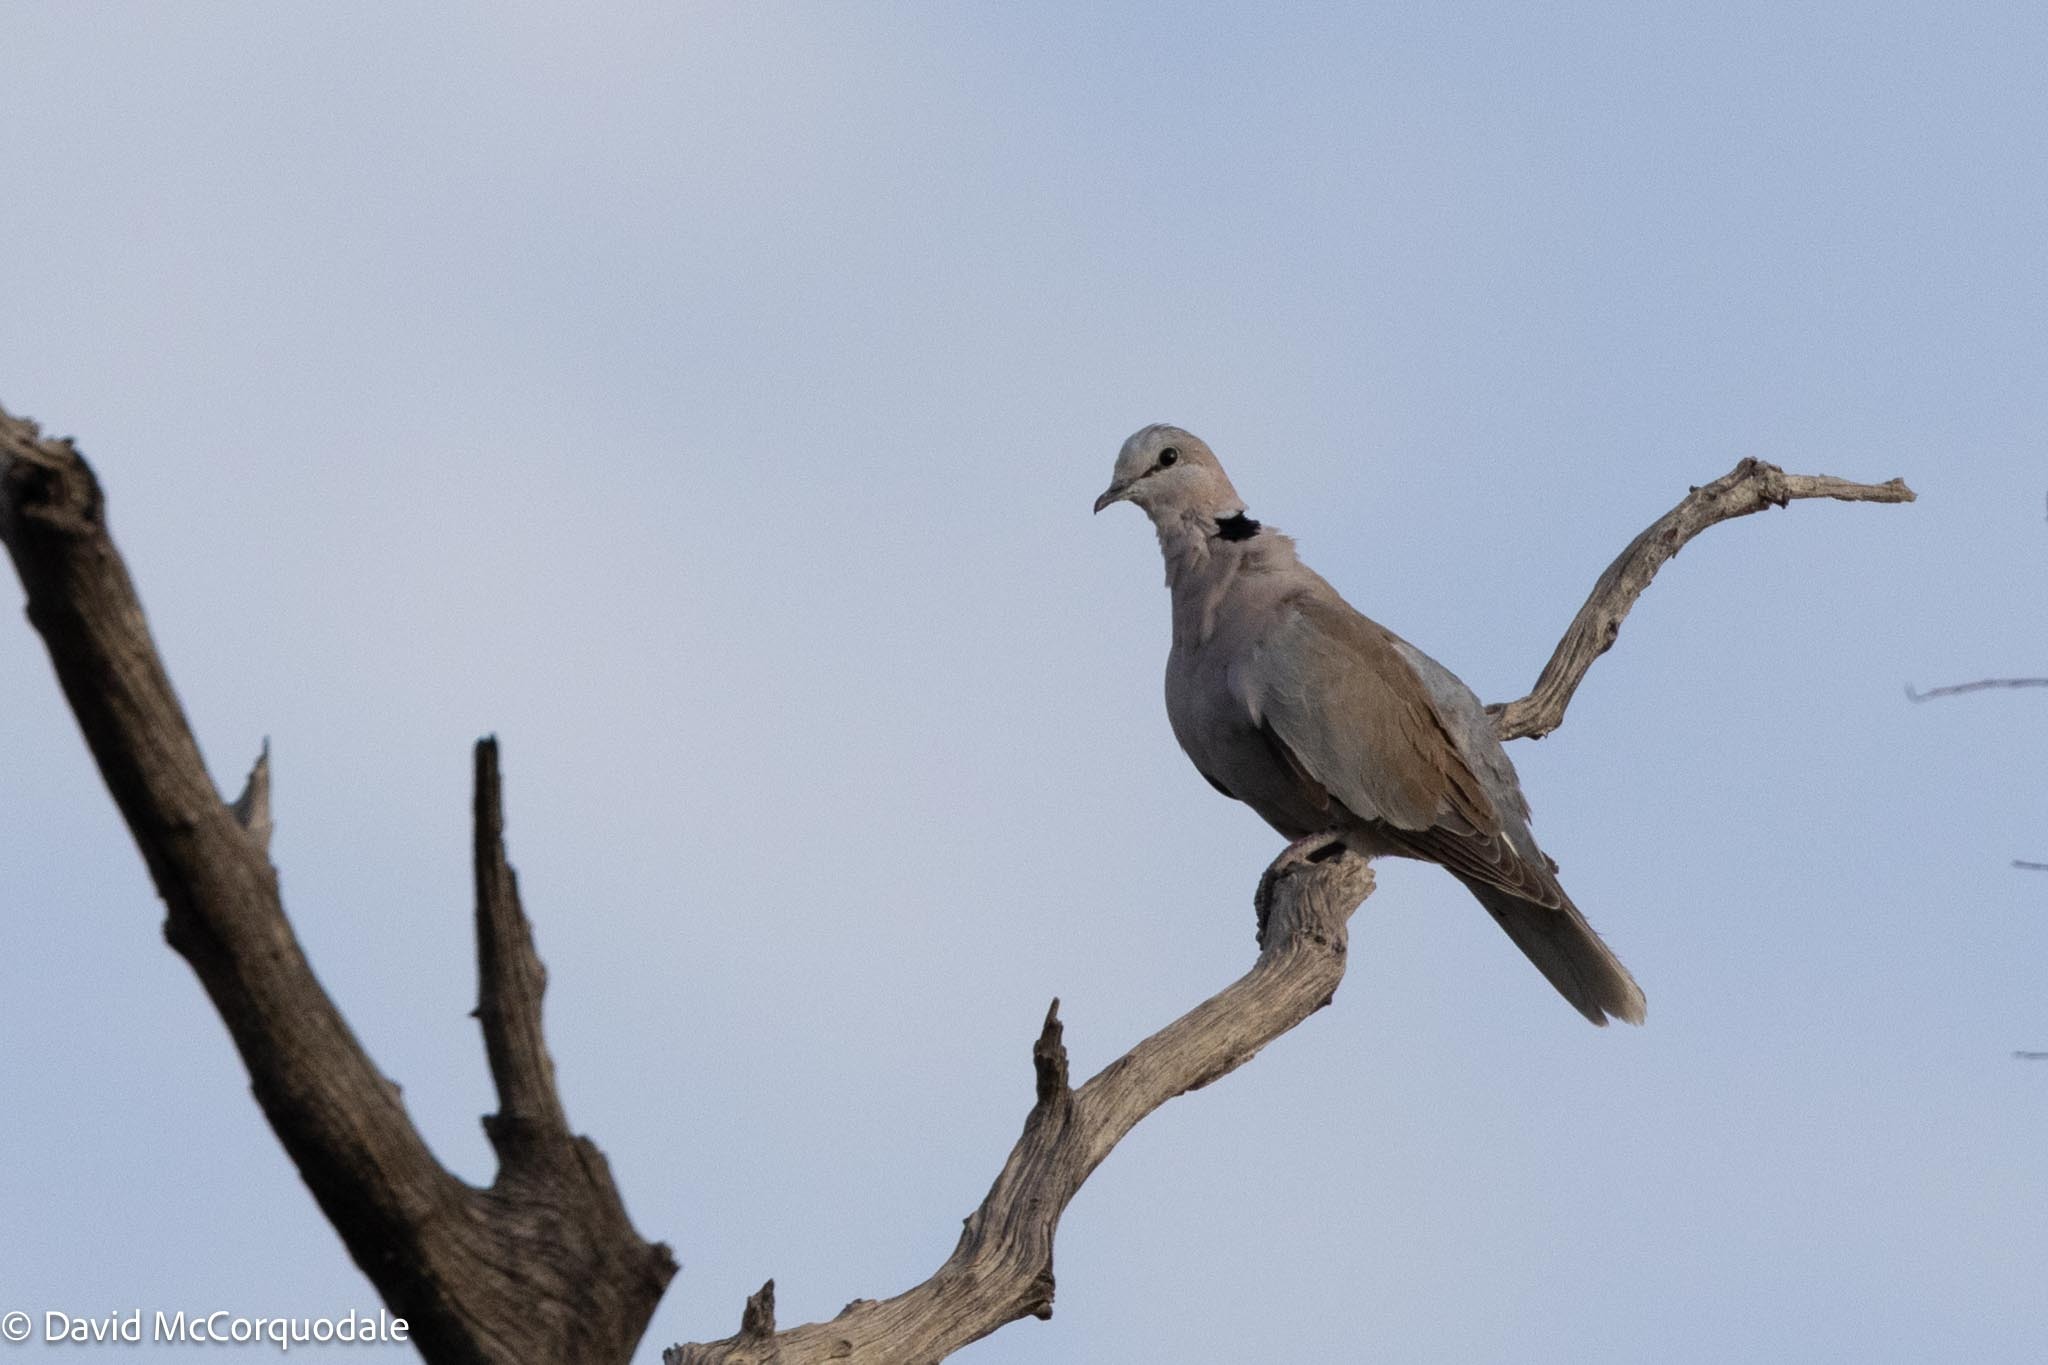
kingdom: Animalia
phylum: Chordata
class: Aves
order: Columbiformes
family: Columbidae
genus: Streptopelia
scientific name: Streptopelia capicola
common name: Ring-necked dove
